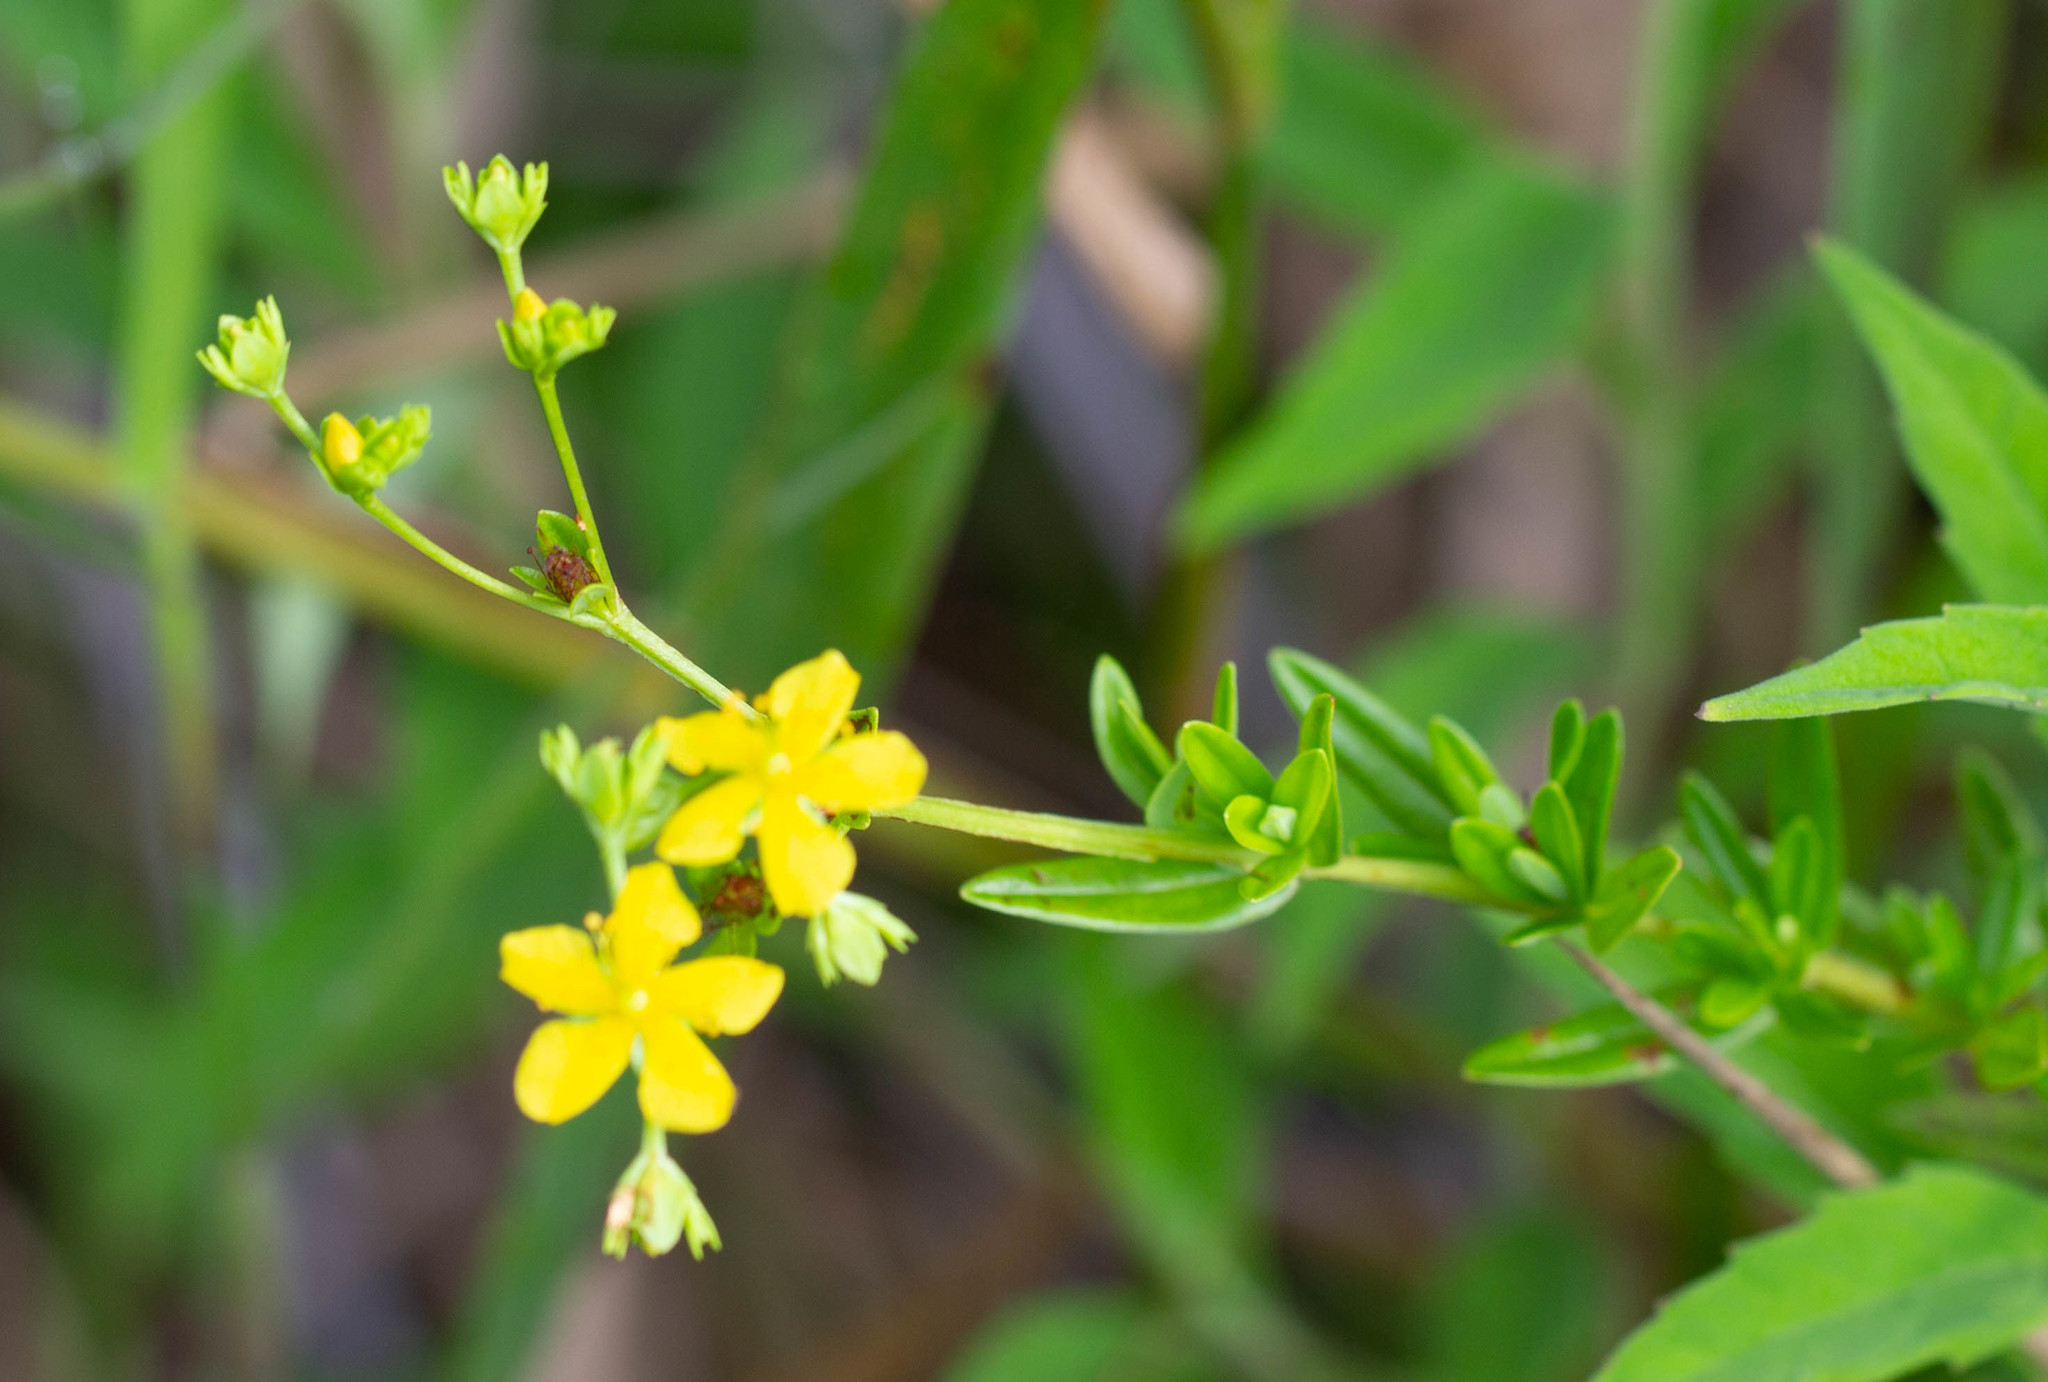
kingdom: Plantae
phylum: Tracheophyta
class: Magnoliopsida
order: Malpighiales
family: Hypericaceae
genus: Hypericum
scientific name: Hypericum cistifolium
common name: Round-pod st. john's-wort
